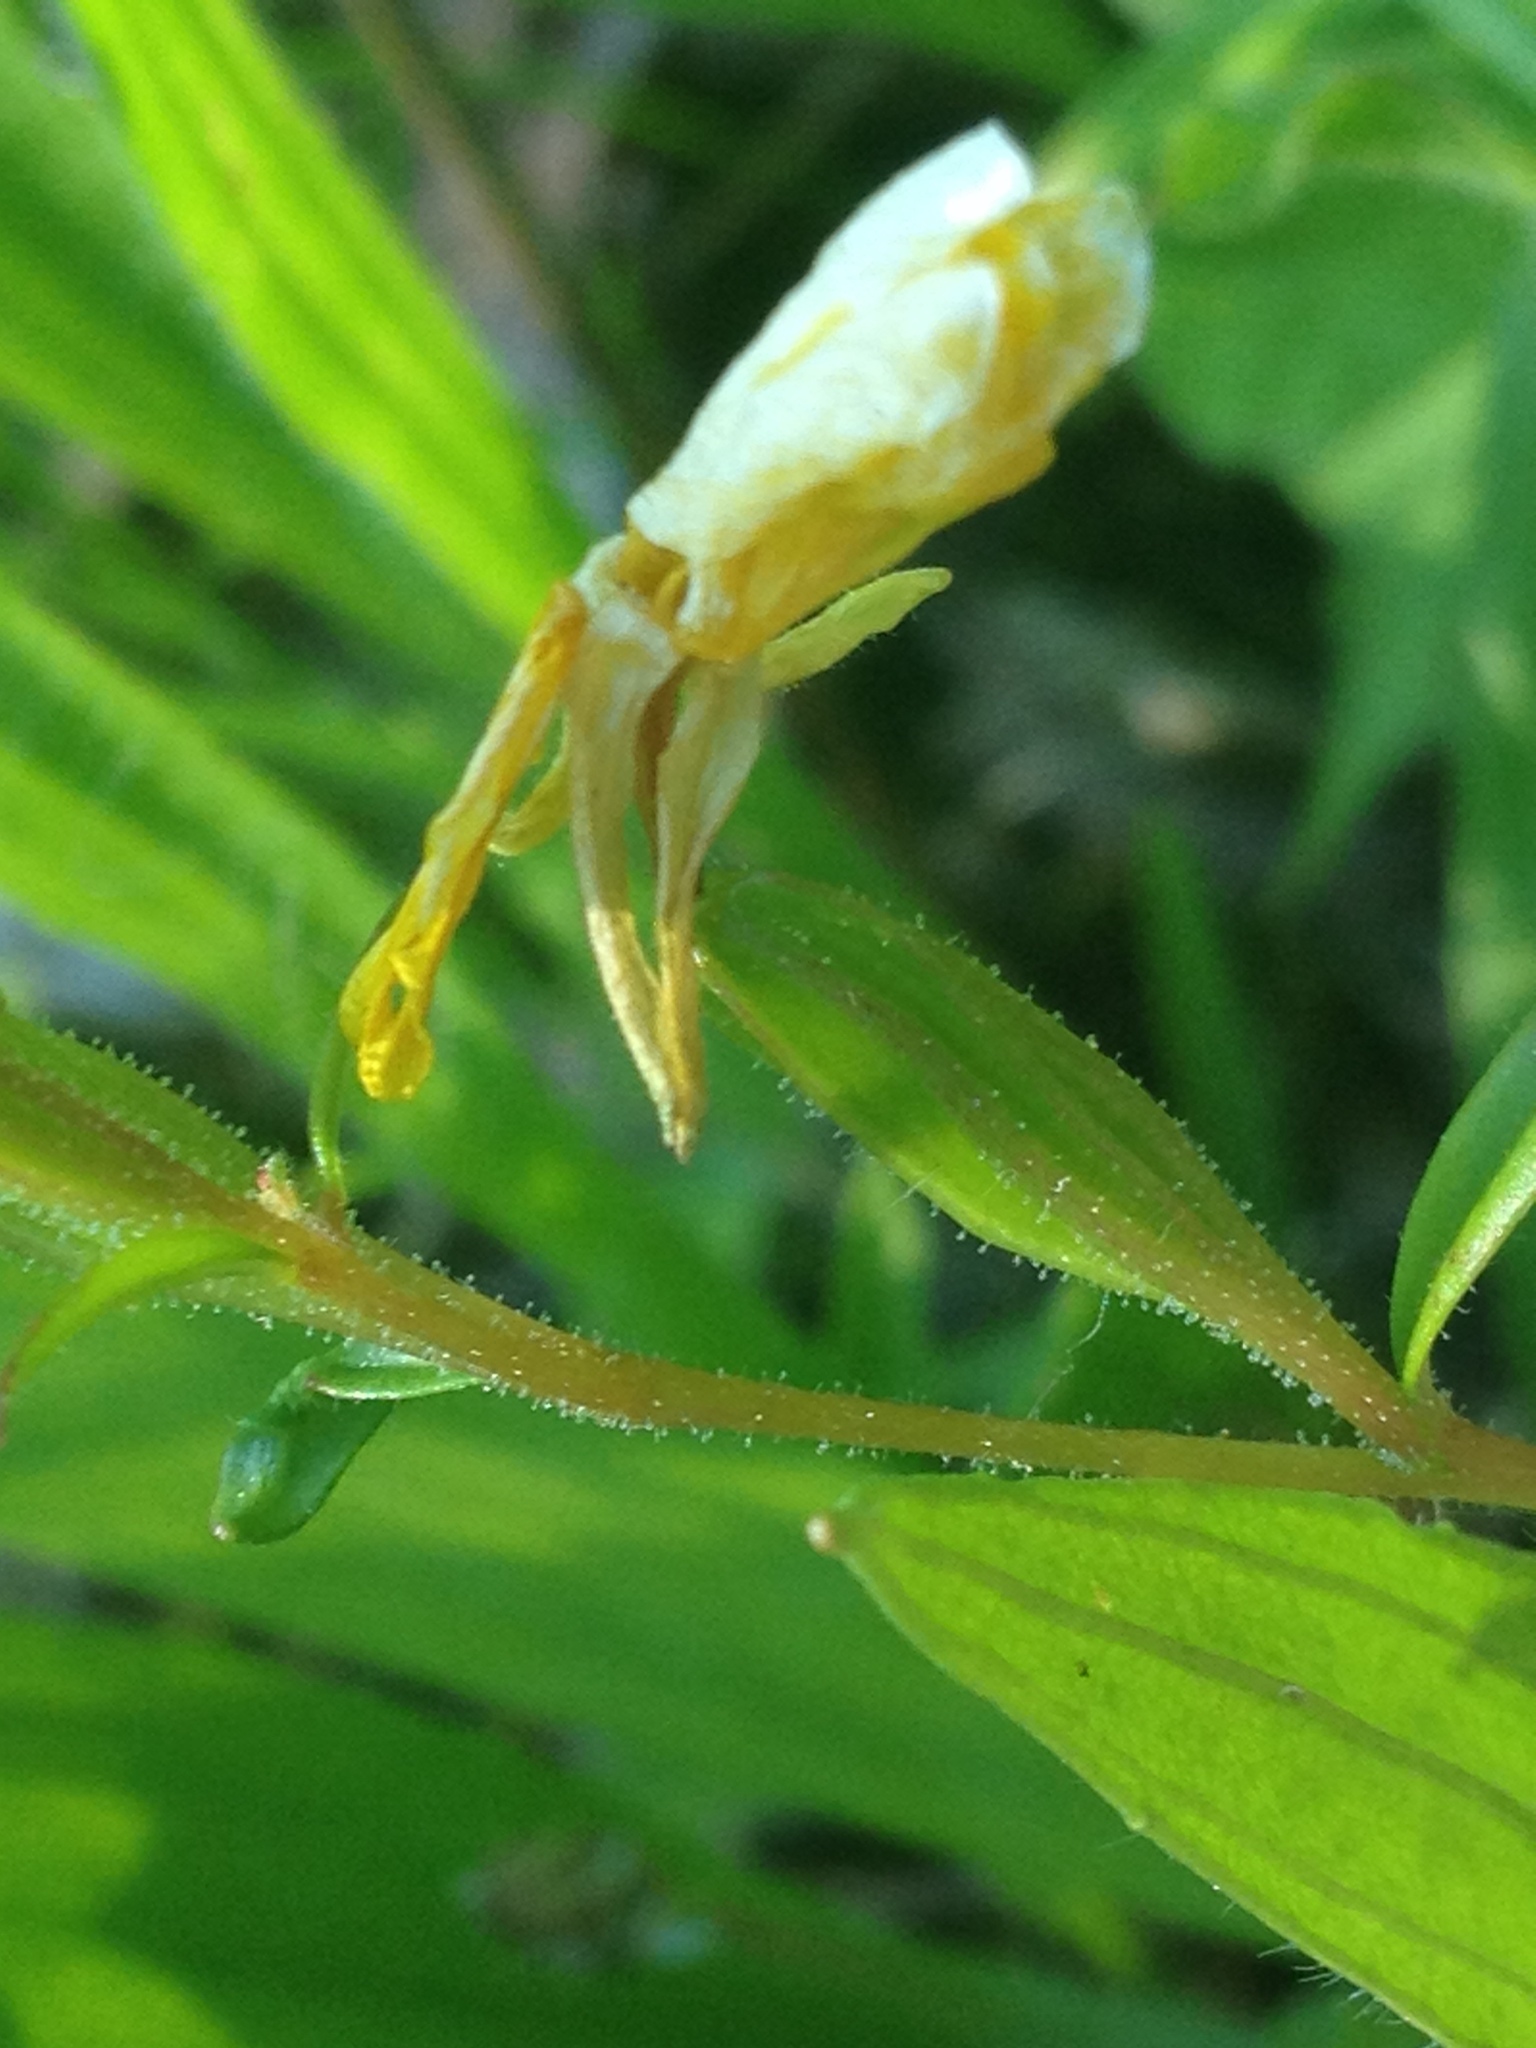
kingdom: Plantae
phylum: Tracheophyta
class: Magnoliopsida
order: Myrtales
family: Onagraceae
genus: Oenothera
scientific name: Oenothera perennis
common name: Small sundrops
